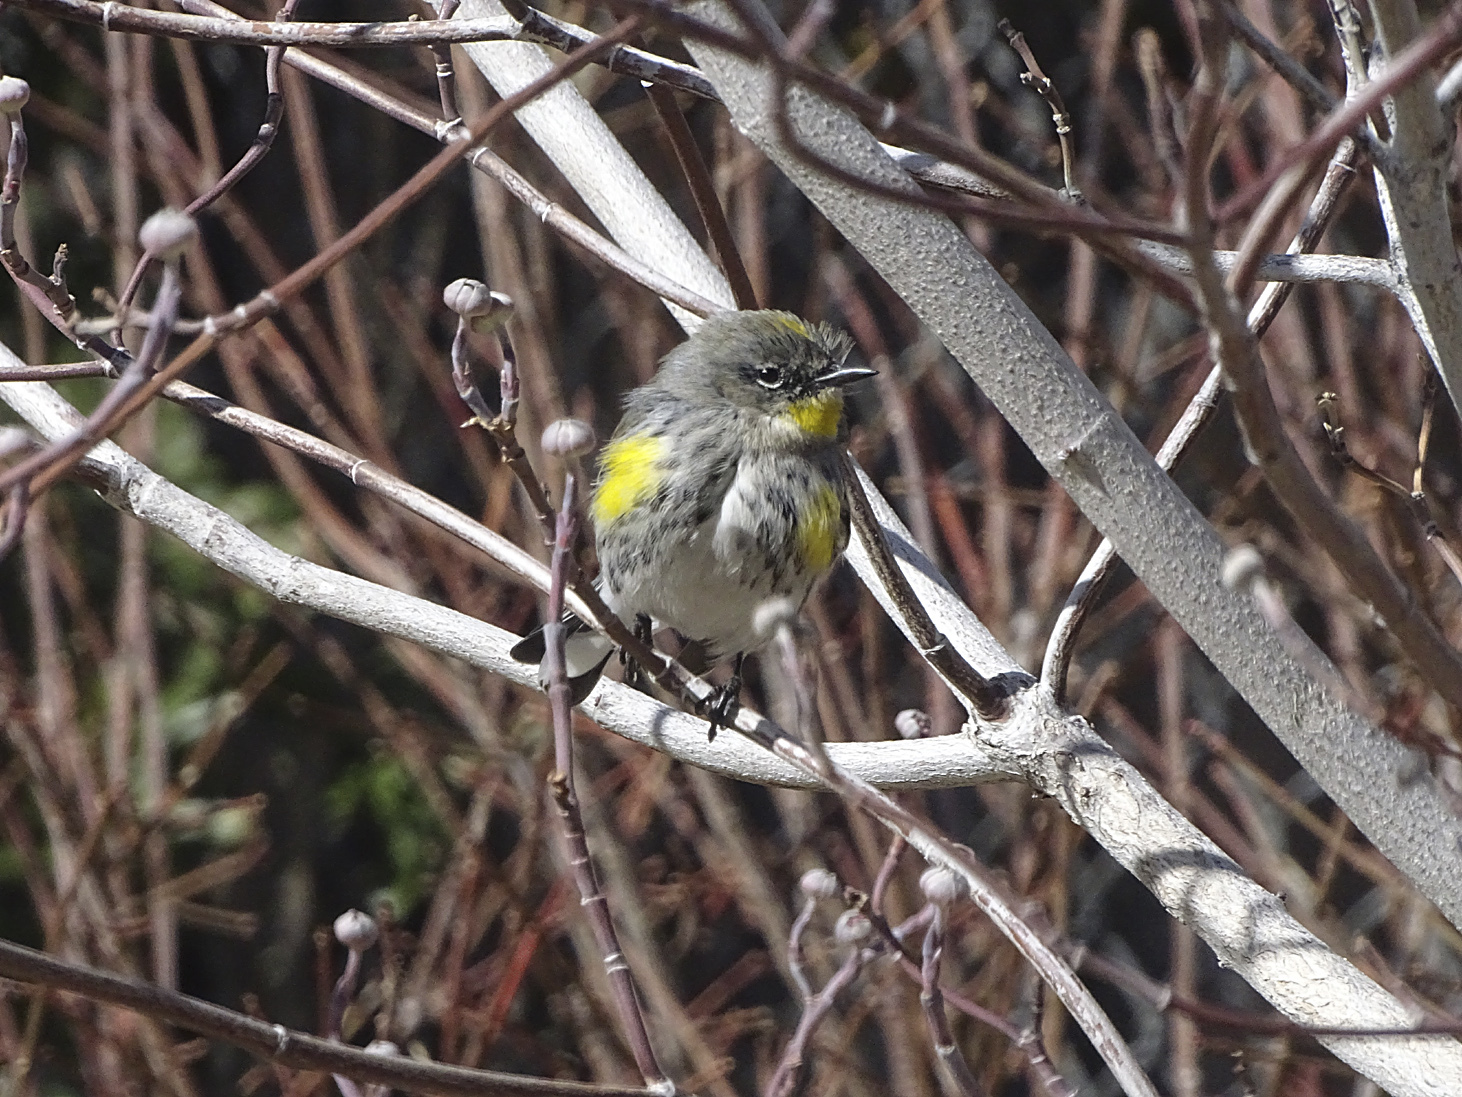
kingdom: Animalia
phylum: Chordata
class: Aves
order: Passeriformes
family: Parulidae
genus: Setophaga
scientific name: Setophaga coronata
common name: Myrtle warbler
